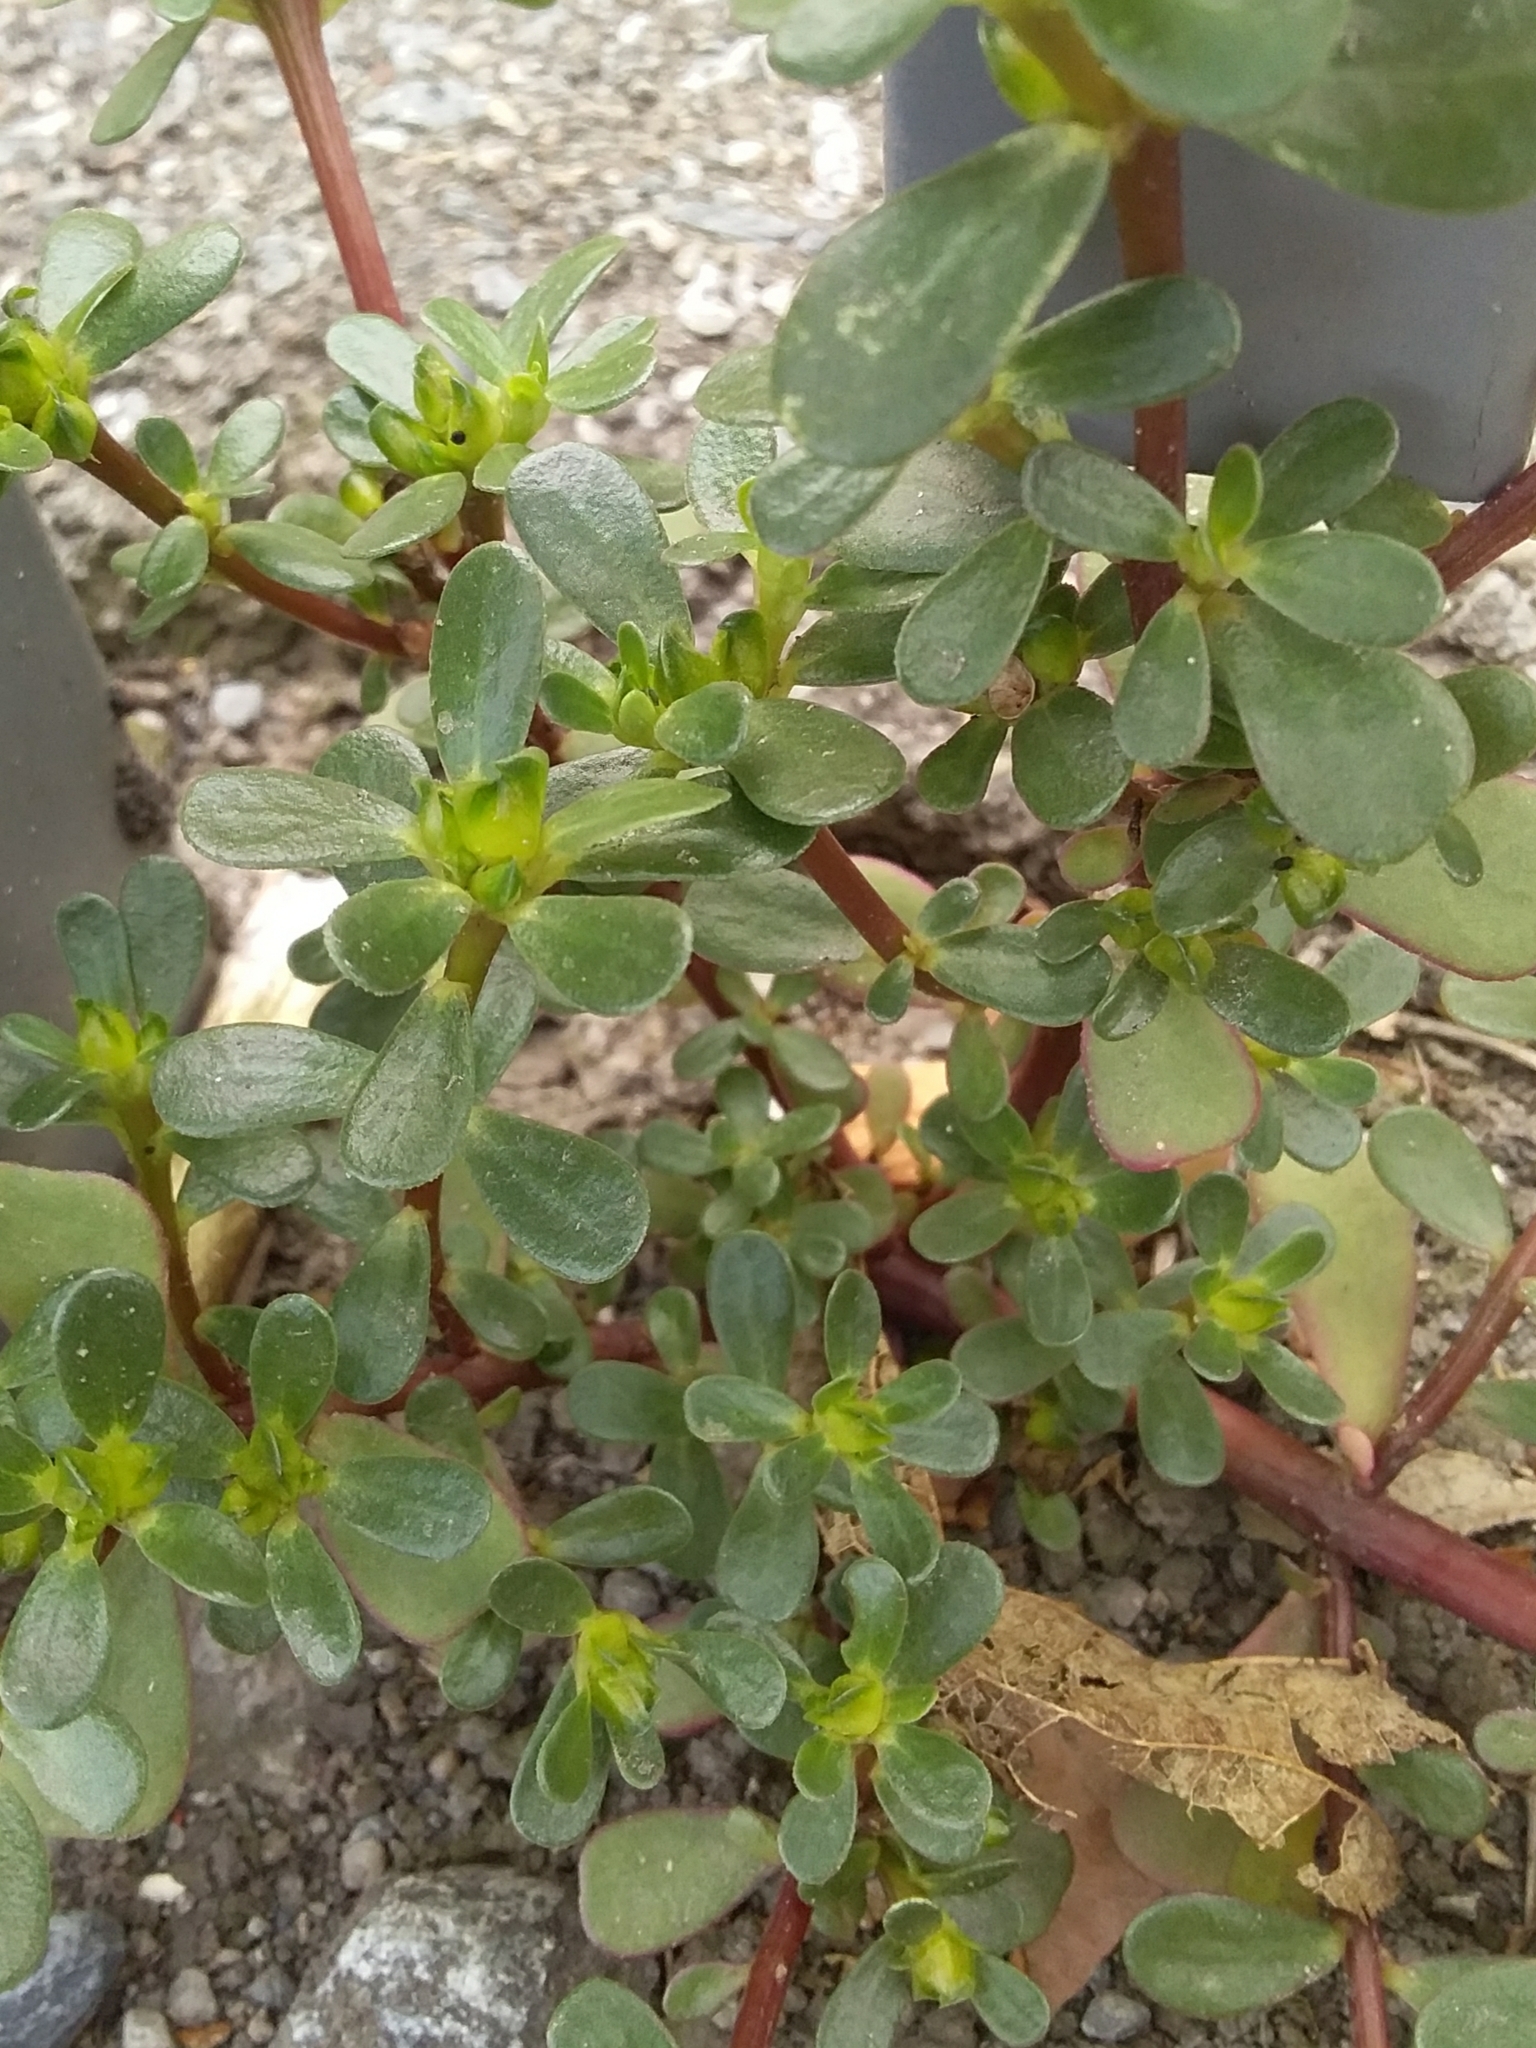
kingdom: Plantae
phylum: Tracheophyta
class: Magnoliopsida
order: Caryophyllales
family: Portulacaceae
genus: Portulaca
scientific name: Portulaca oleracea
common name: Common purslane
